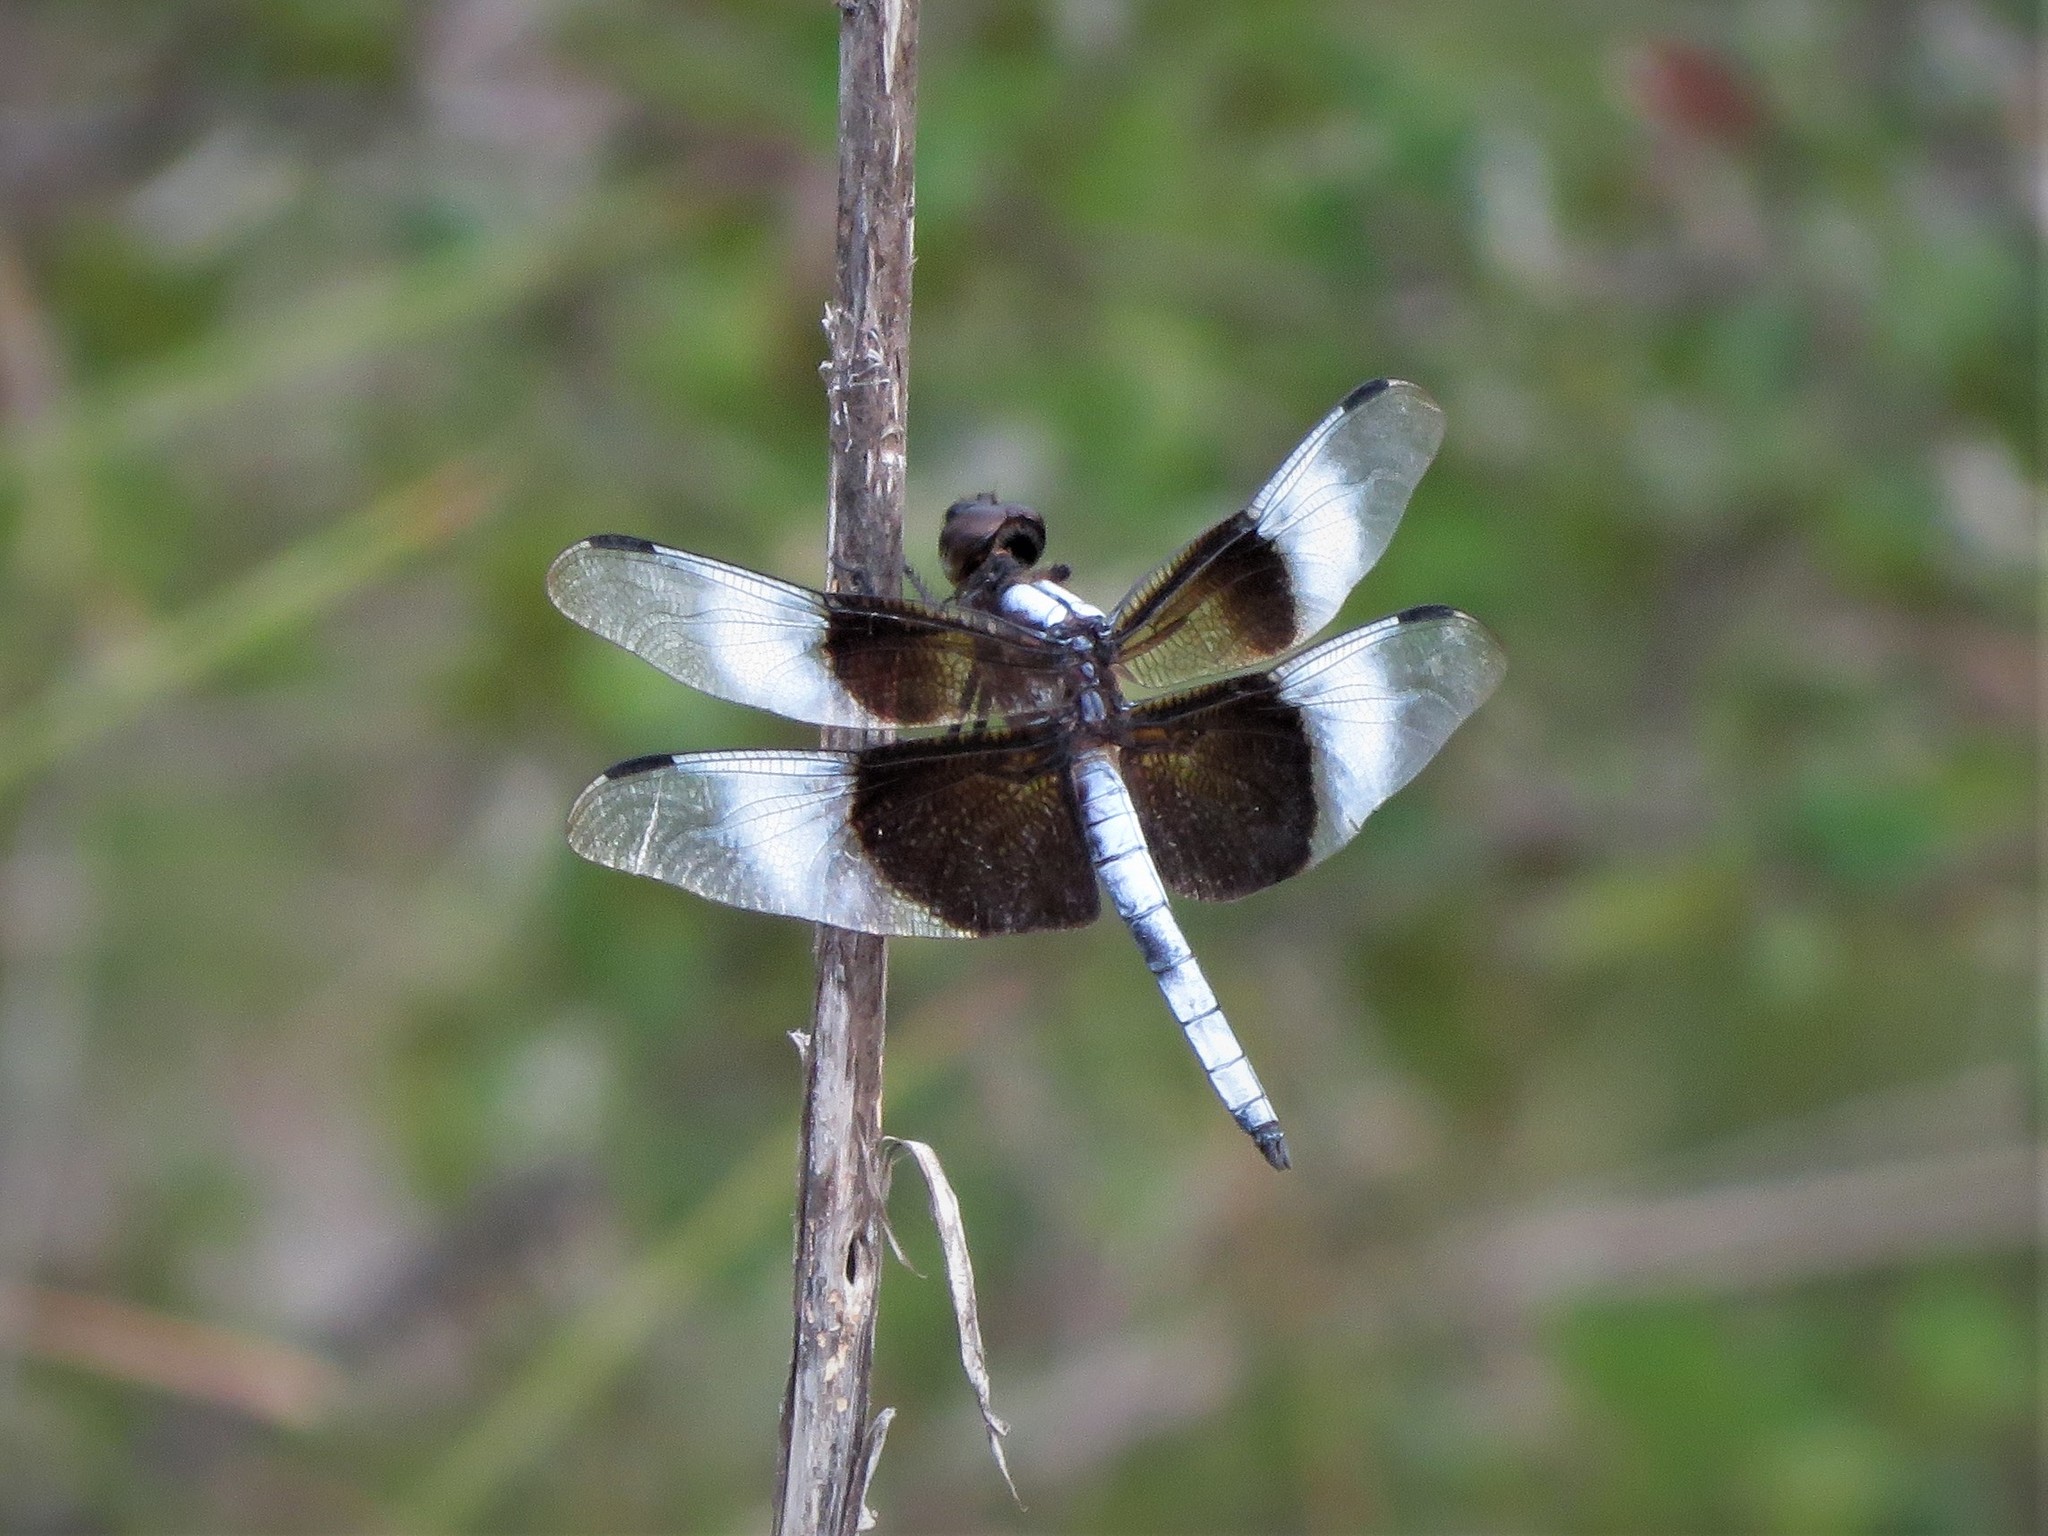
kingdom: Animalia
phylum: Arthropoda
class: Insecta
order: Odonata
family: Libellulidae
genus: Libellula
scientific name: Libellula luctuosa
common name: Widow skimmer
